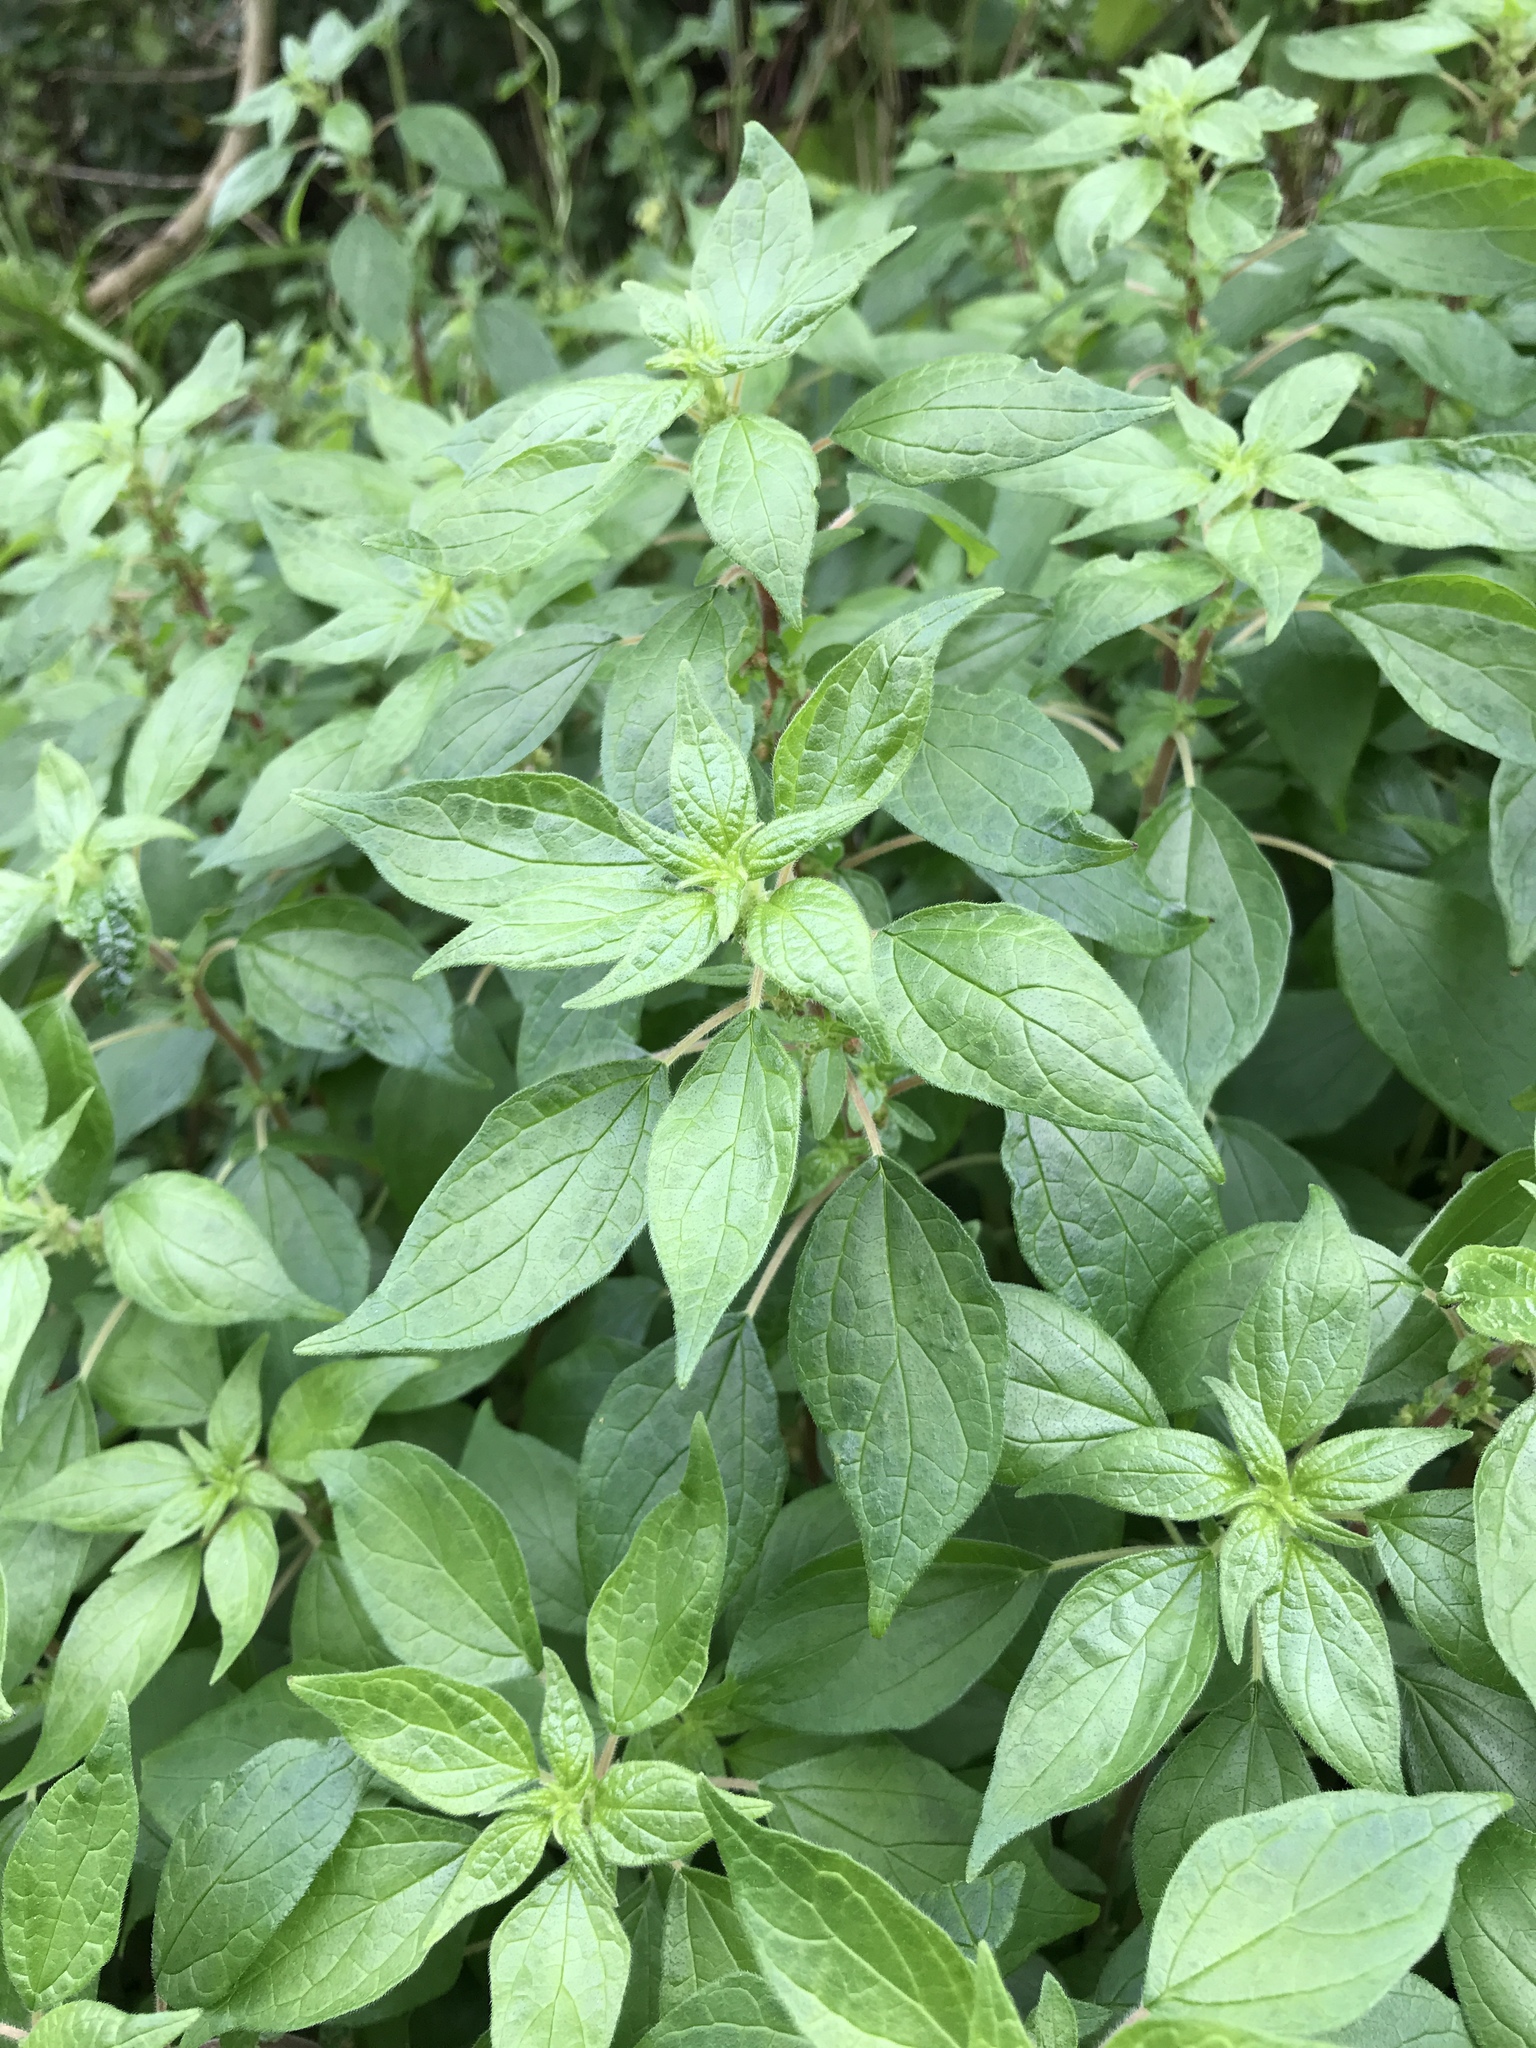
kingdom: Plantae
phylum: Tracheophyta
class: Magnoliopsida
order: Rosales
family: Urticaceae
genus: Parietaria
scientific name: Parietaria judaica
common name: Pellitory-of-the-wall
